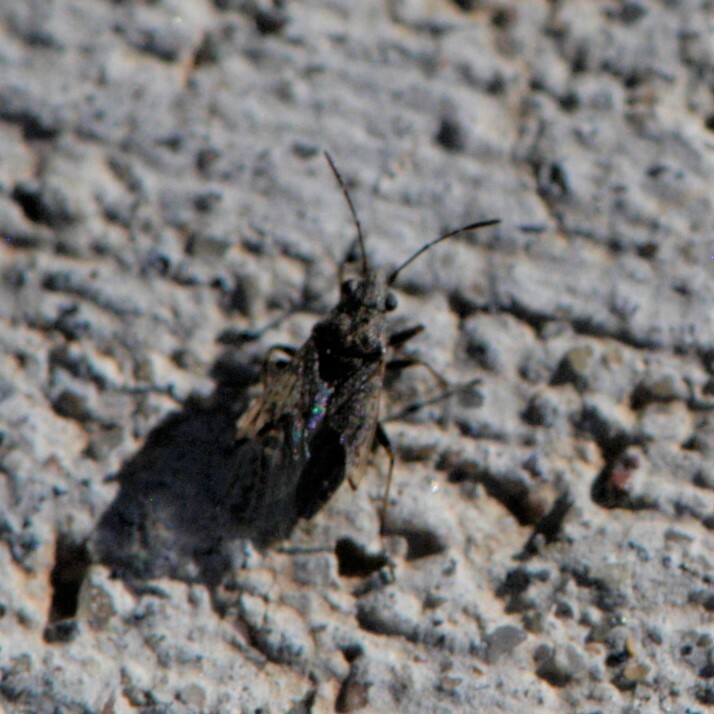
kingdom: Animalia
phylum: Arthropoda
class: Insecta
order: Hemiptera
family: Lygaeidae
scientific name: Lygaeidae
